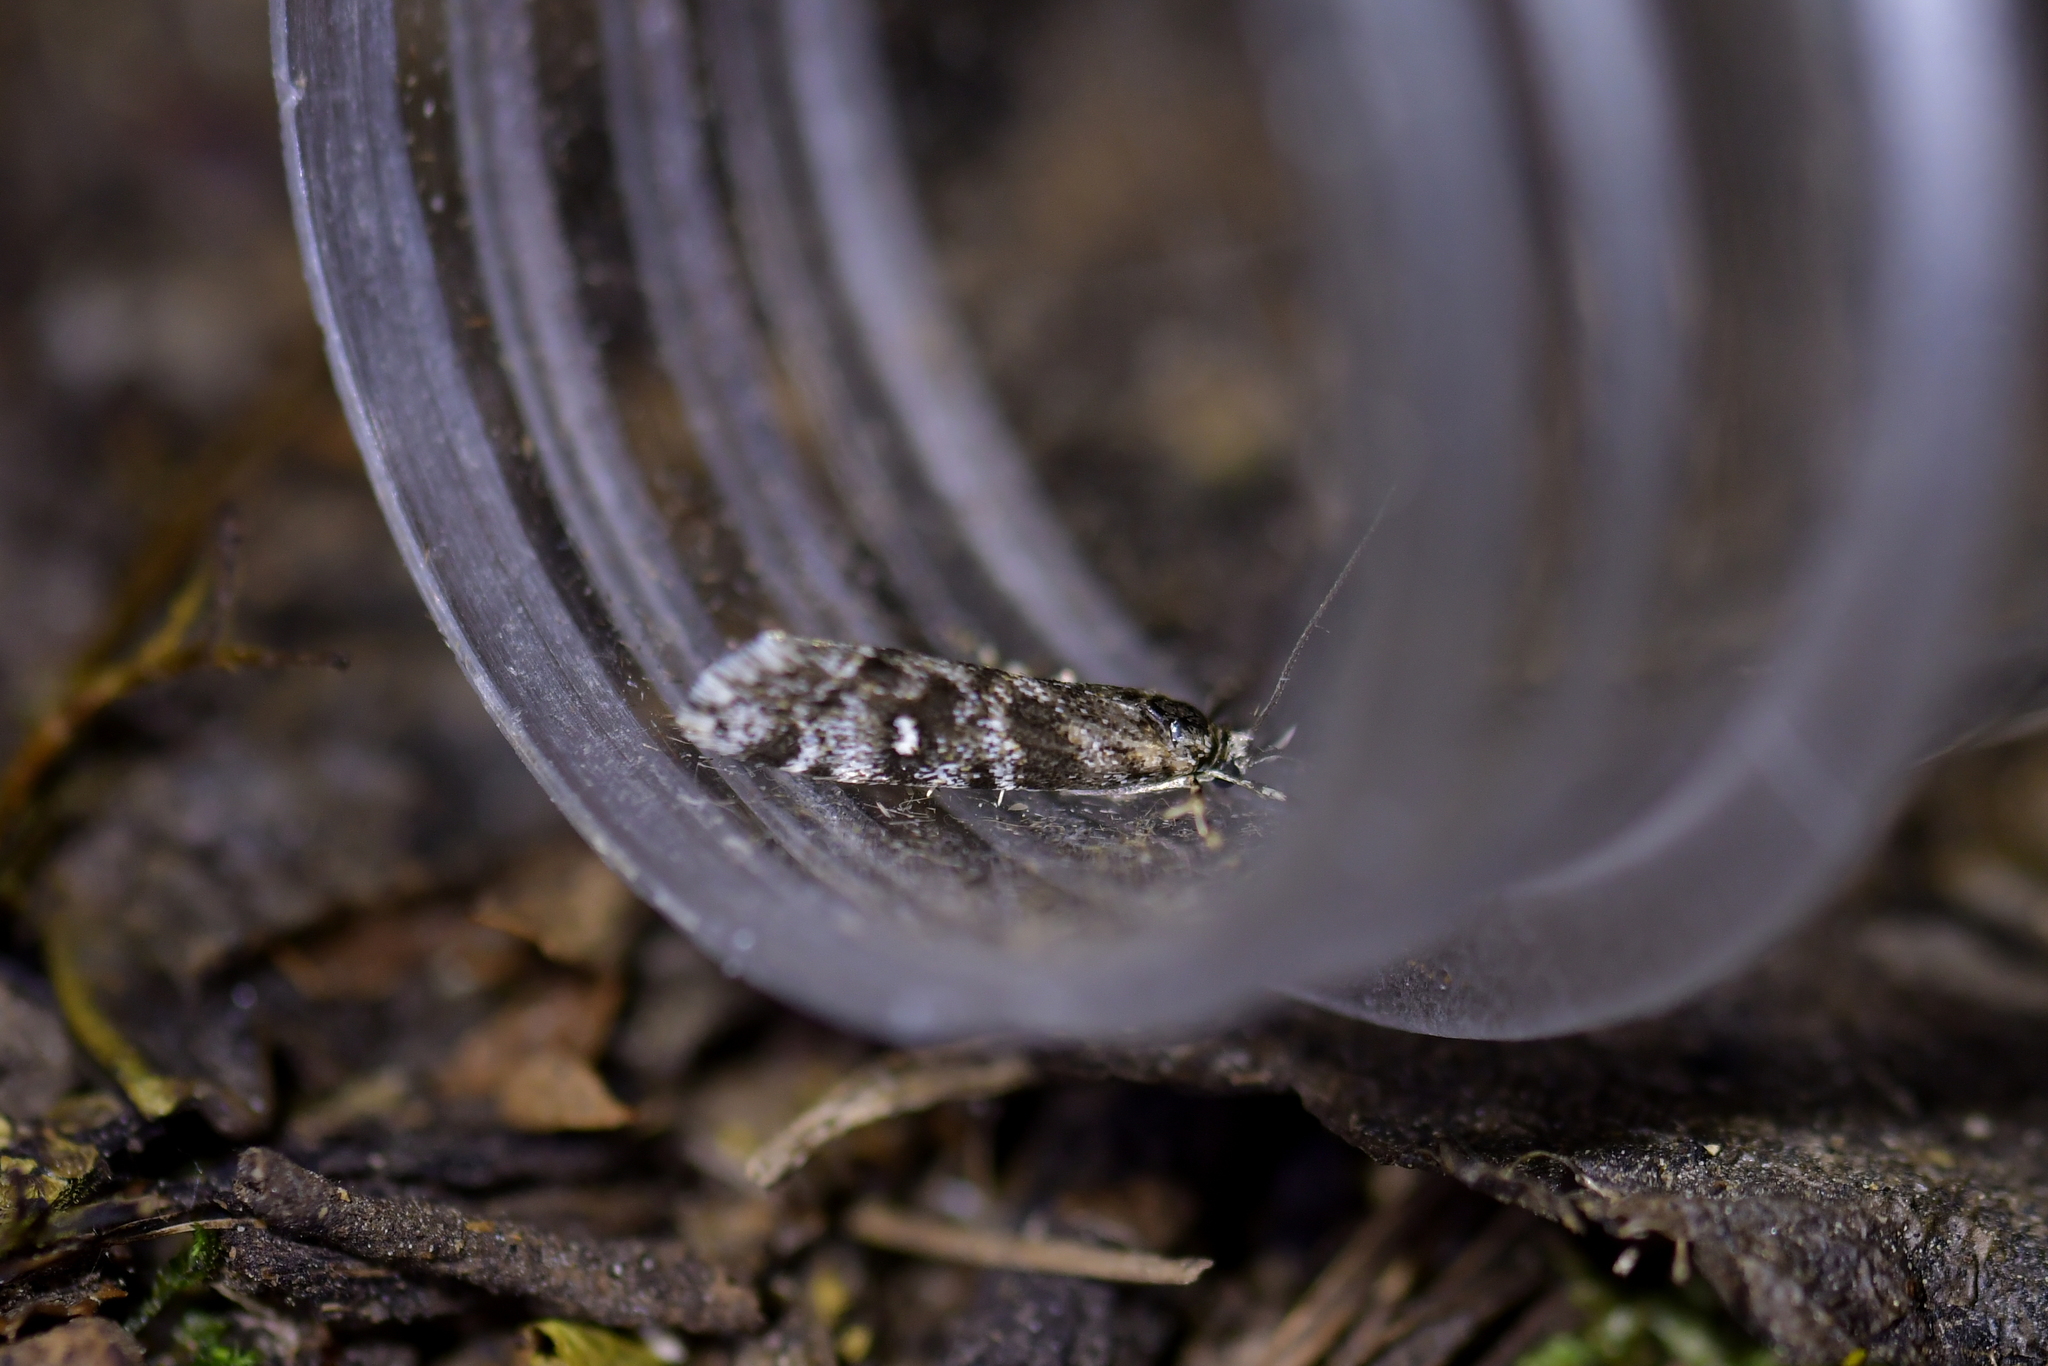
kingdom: Animalia
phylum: Arthropoda
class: Insecta
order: Lepidoptera
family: Crambidae
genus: Gadira
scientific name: Gadira petraula
